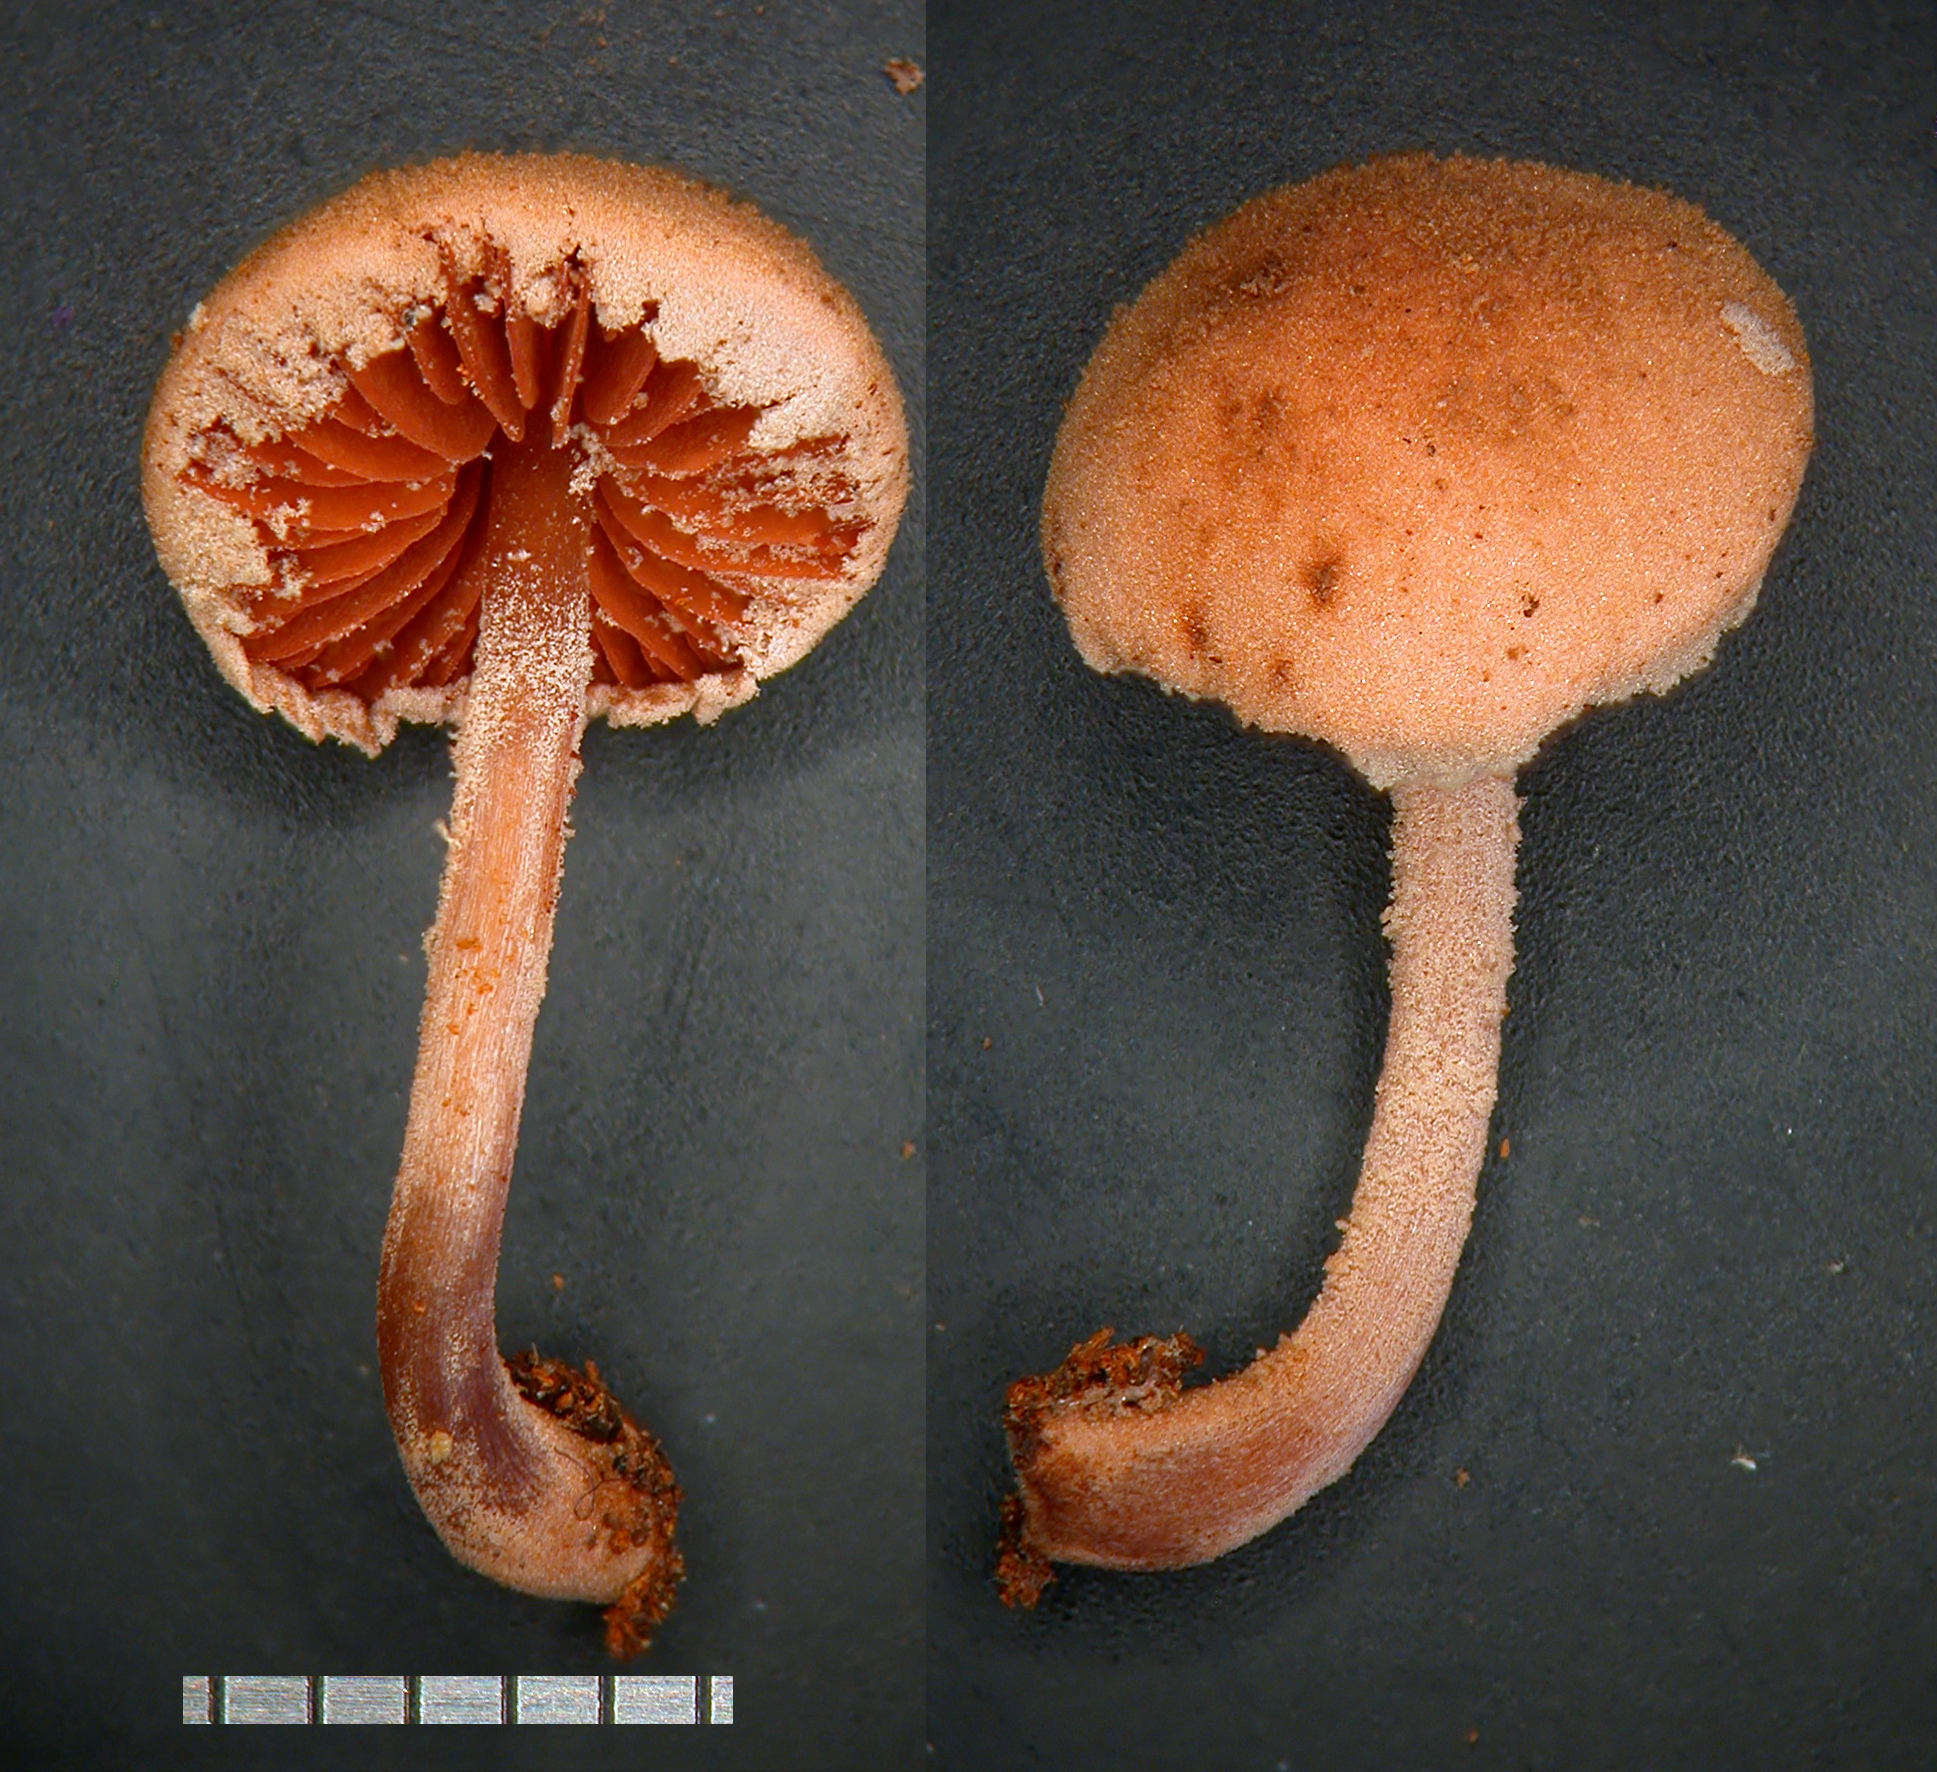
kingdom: Fungi
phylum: Basidiomycota
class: Agaricomycetes
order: Agaricales
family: Agaricaceae
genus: Melanophyllum
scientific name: Melanophyllum haematospermum
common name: Redspored dapperling
